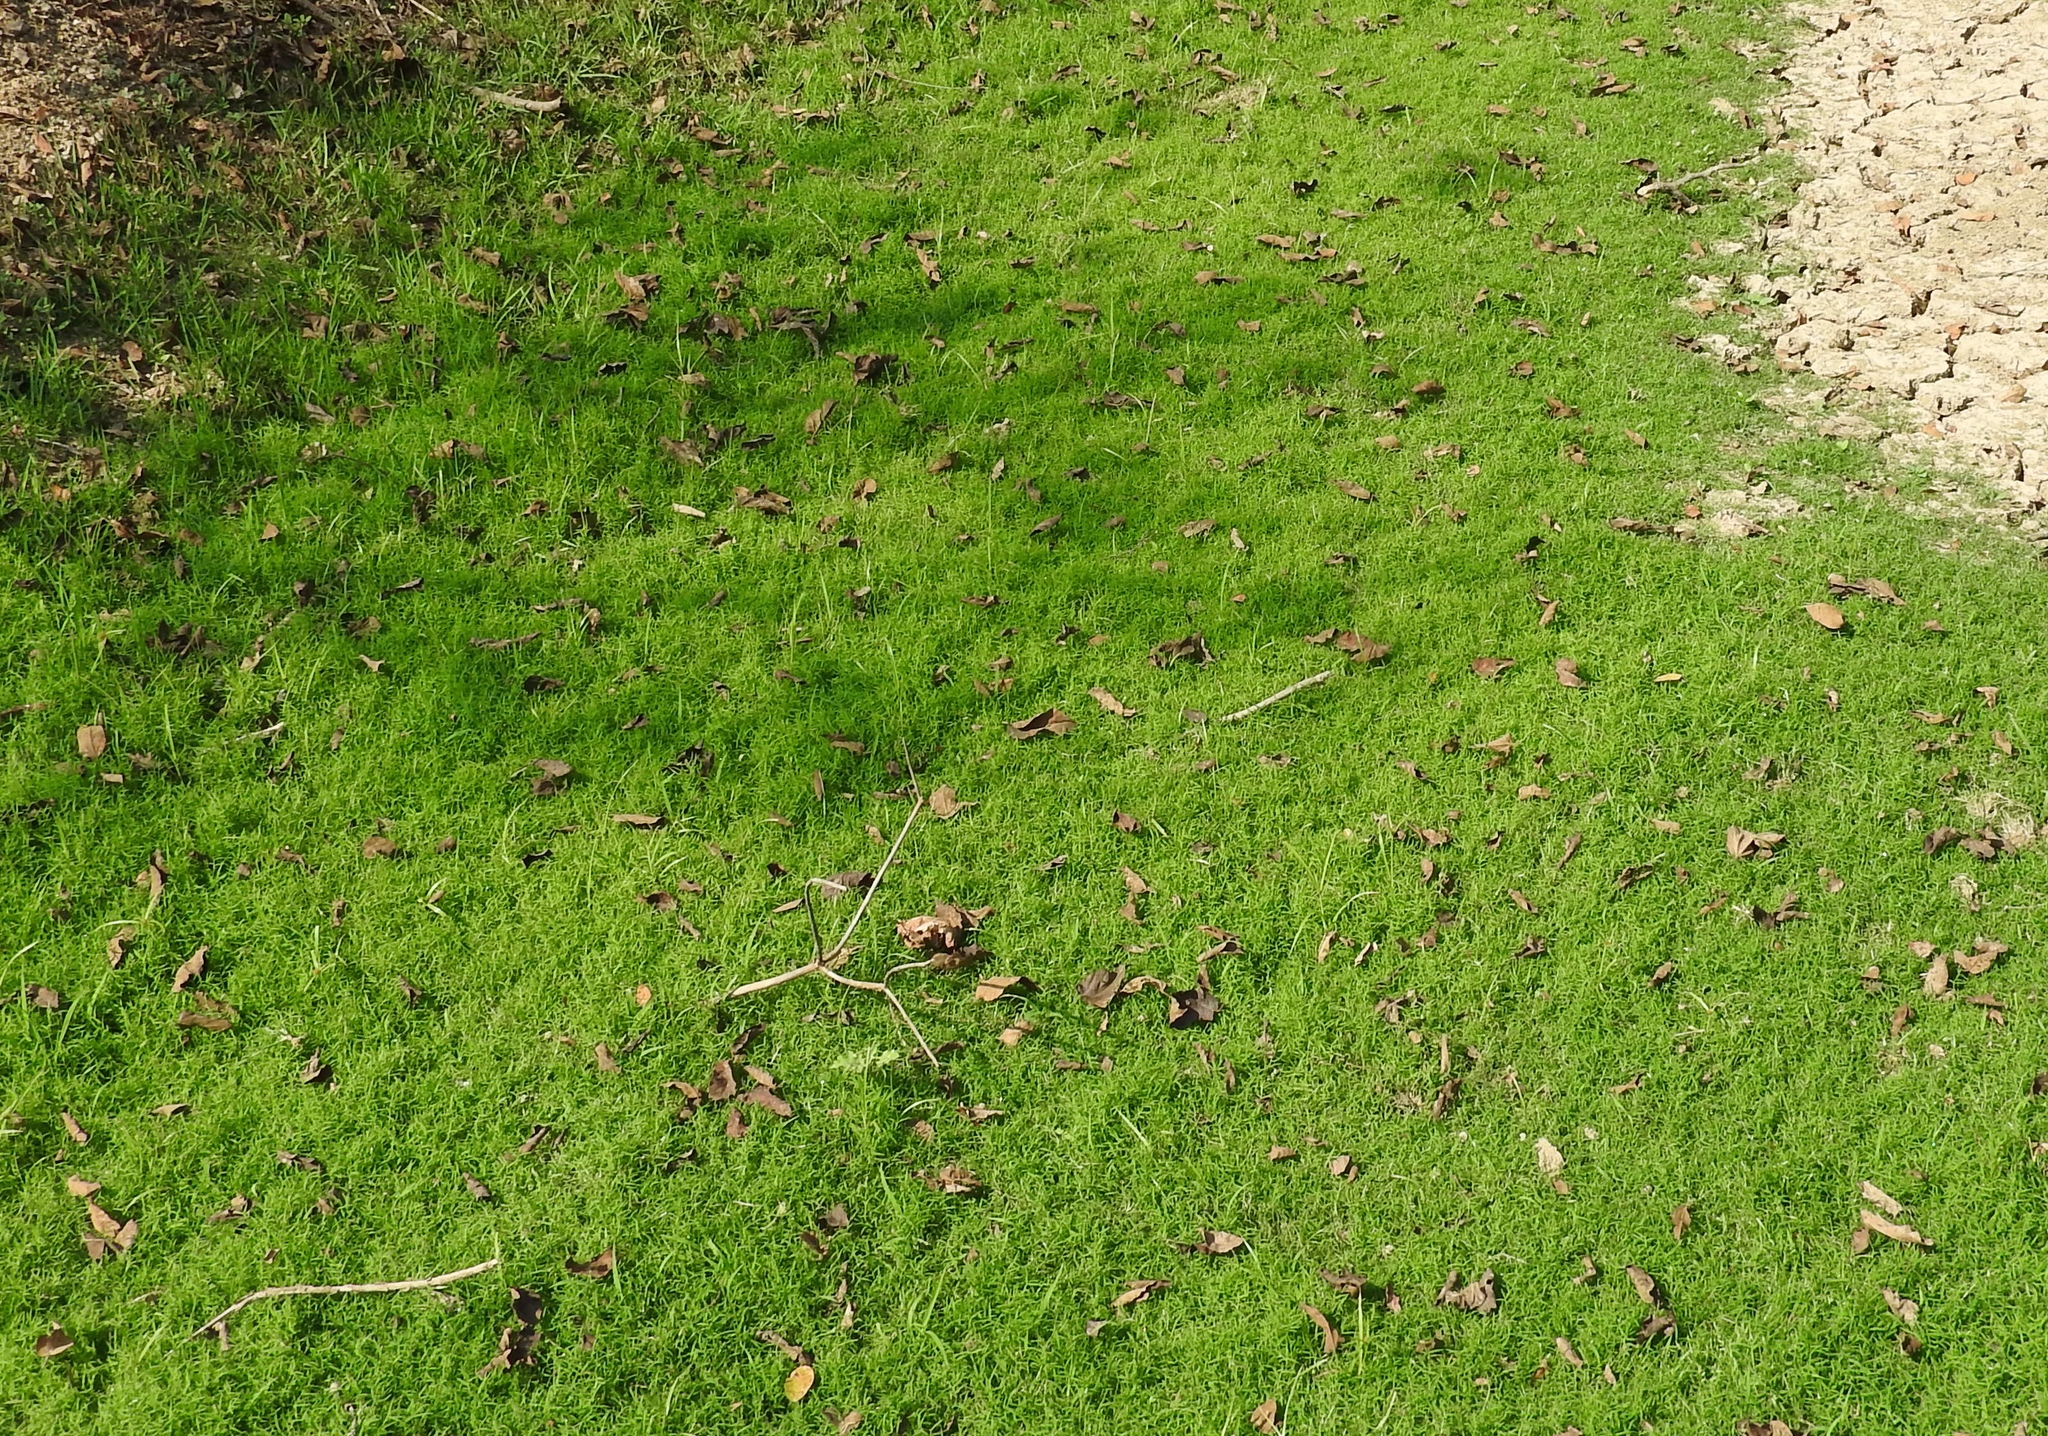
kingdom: Plantae
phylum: Tracheophyta
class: Liliopsida
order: Poales
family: Poaceae
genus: Cynodon
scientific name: Cynodon dactylon
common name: Bermuda grass
